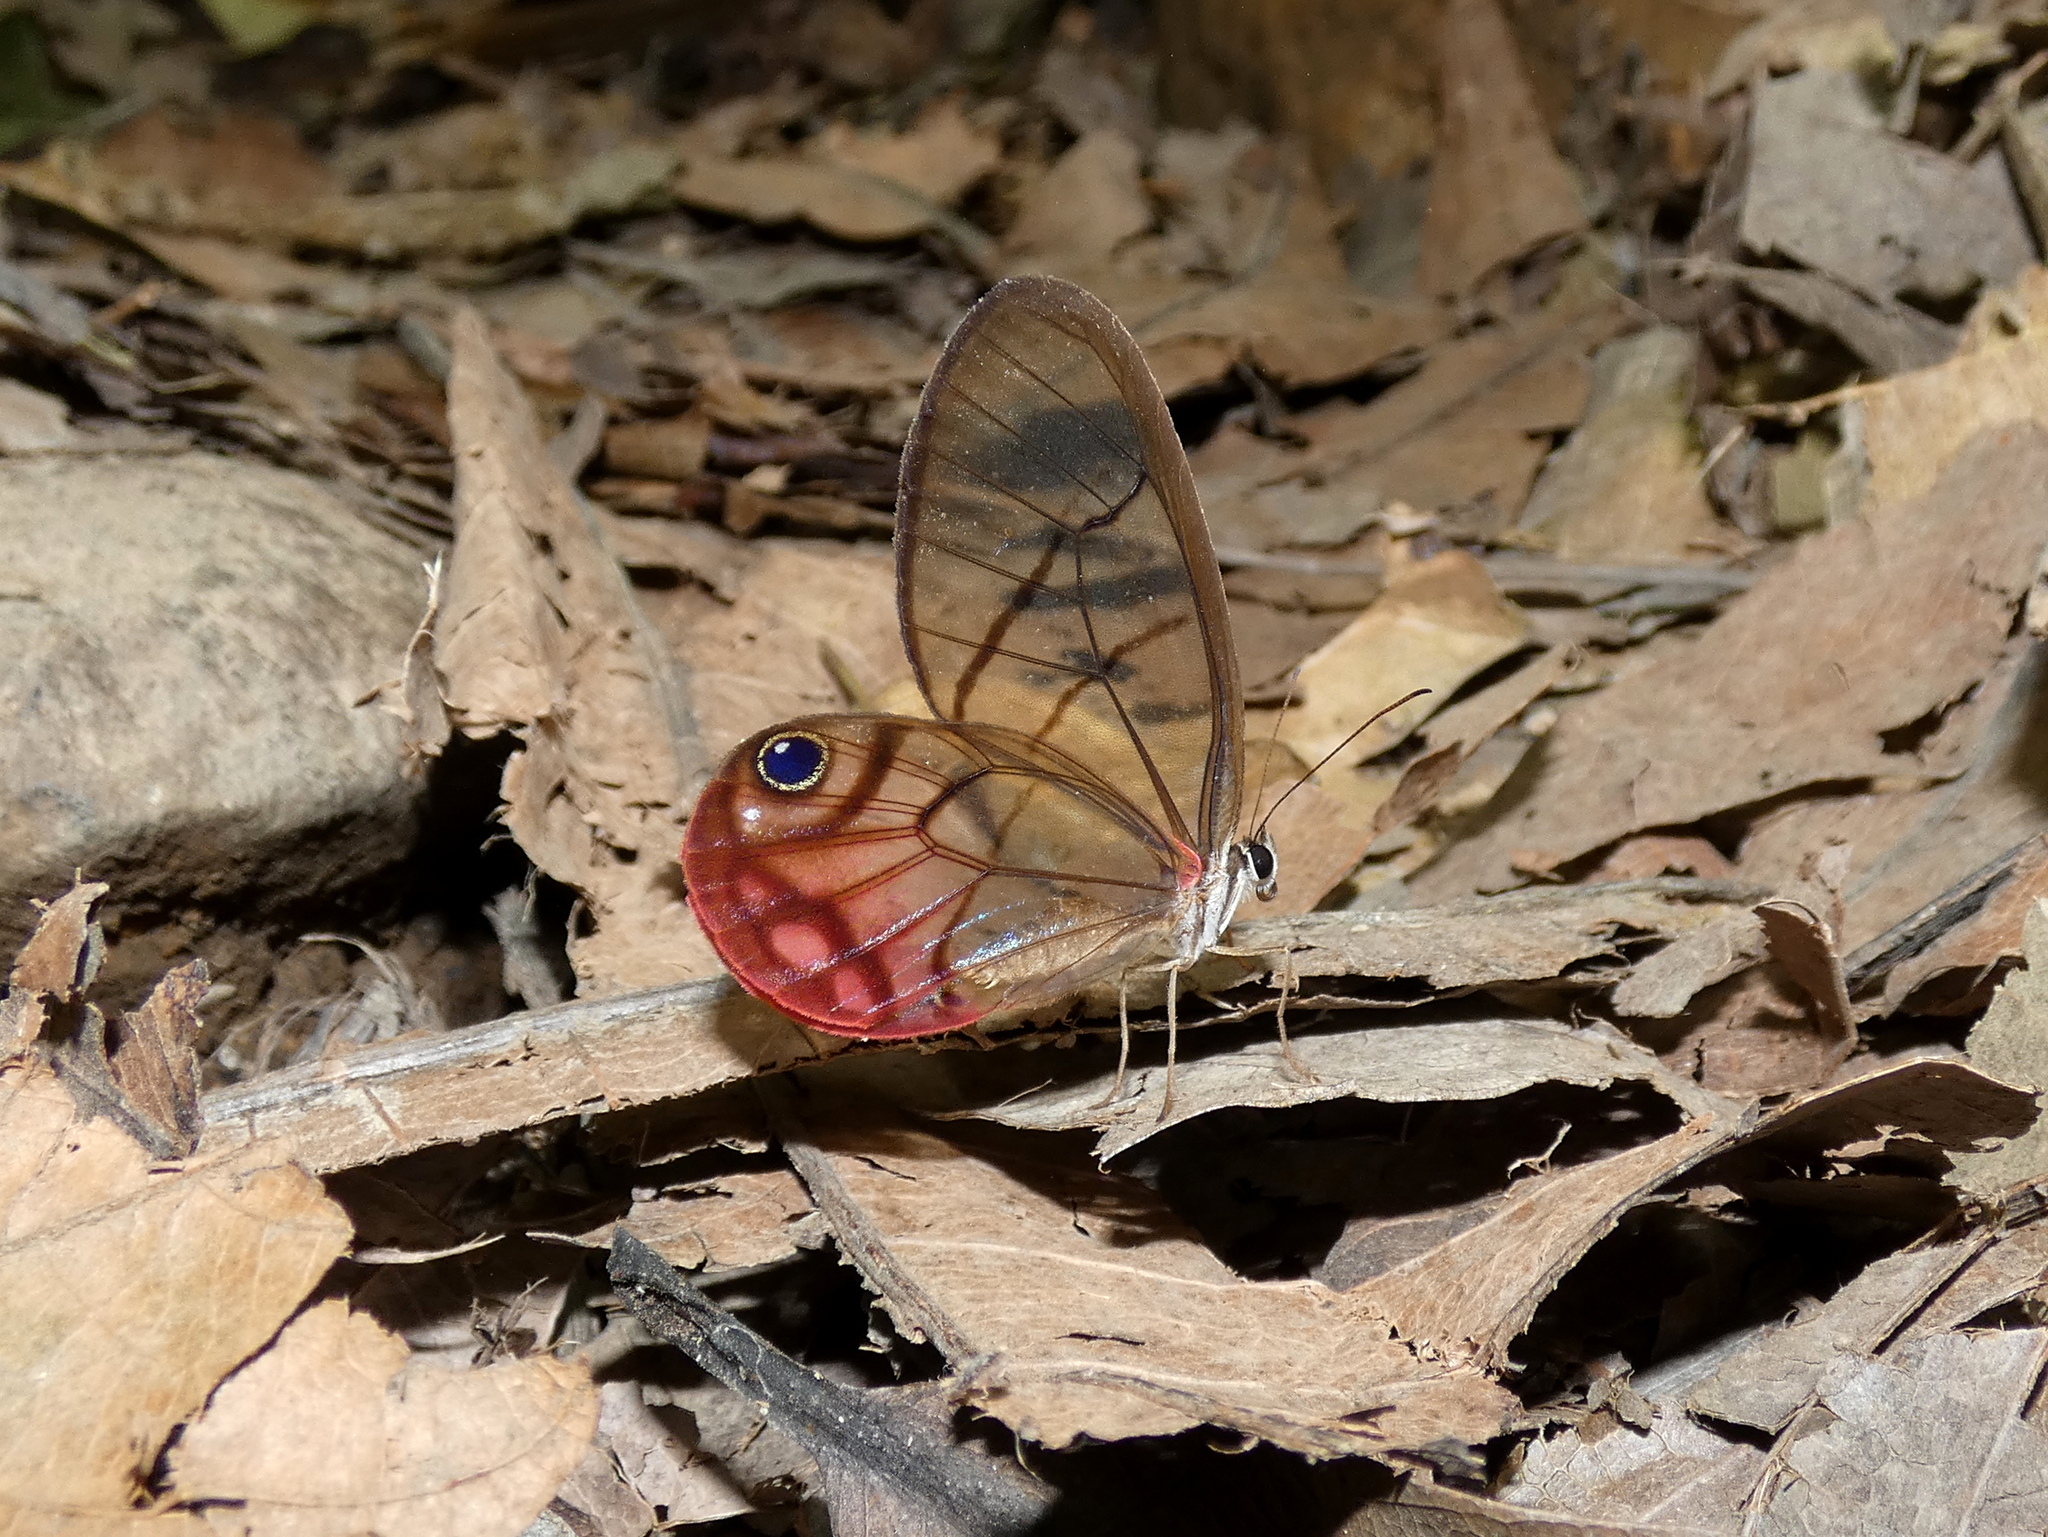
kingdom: Animalia
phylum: Arthropoda
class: Insecta
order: Lepidoptera
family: Nymphalidae
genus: Cithaerias
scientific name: Cithaerias pireta
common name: Rusted clearwing-satyr
